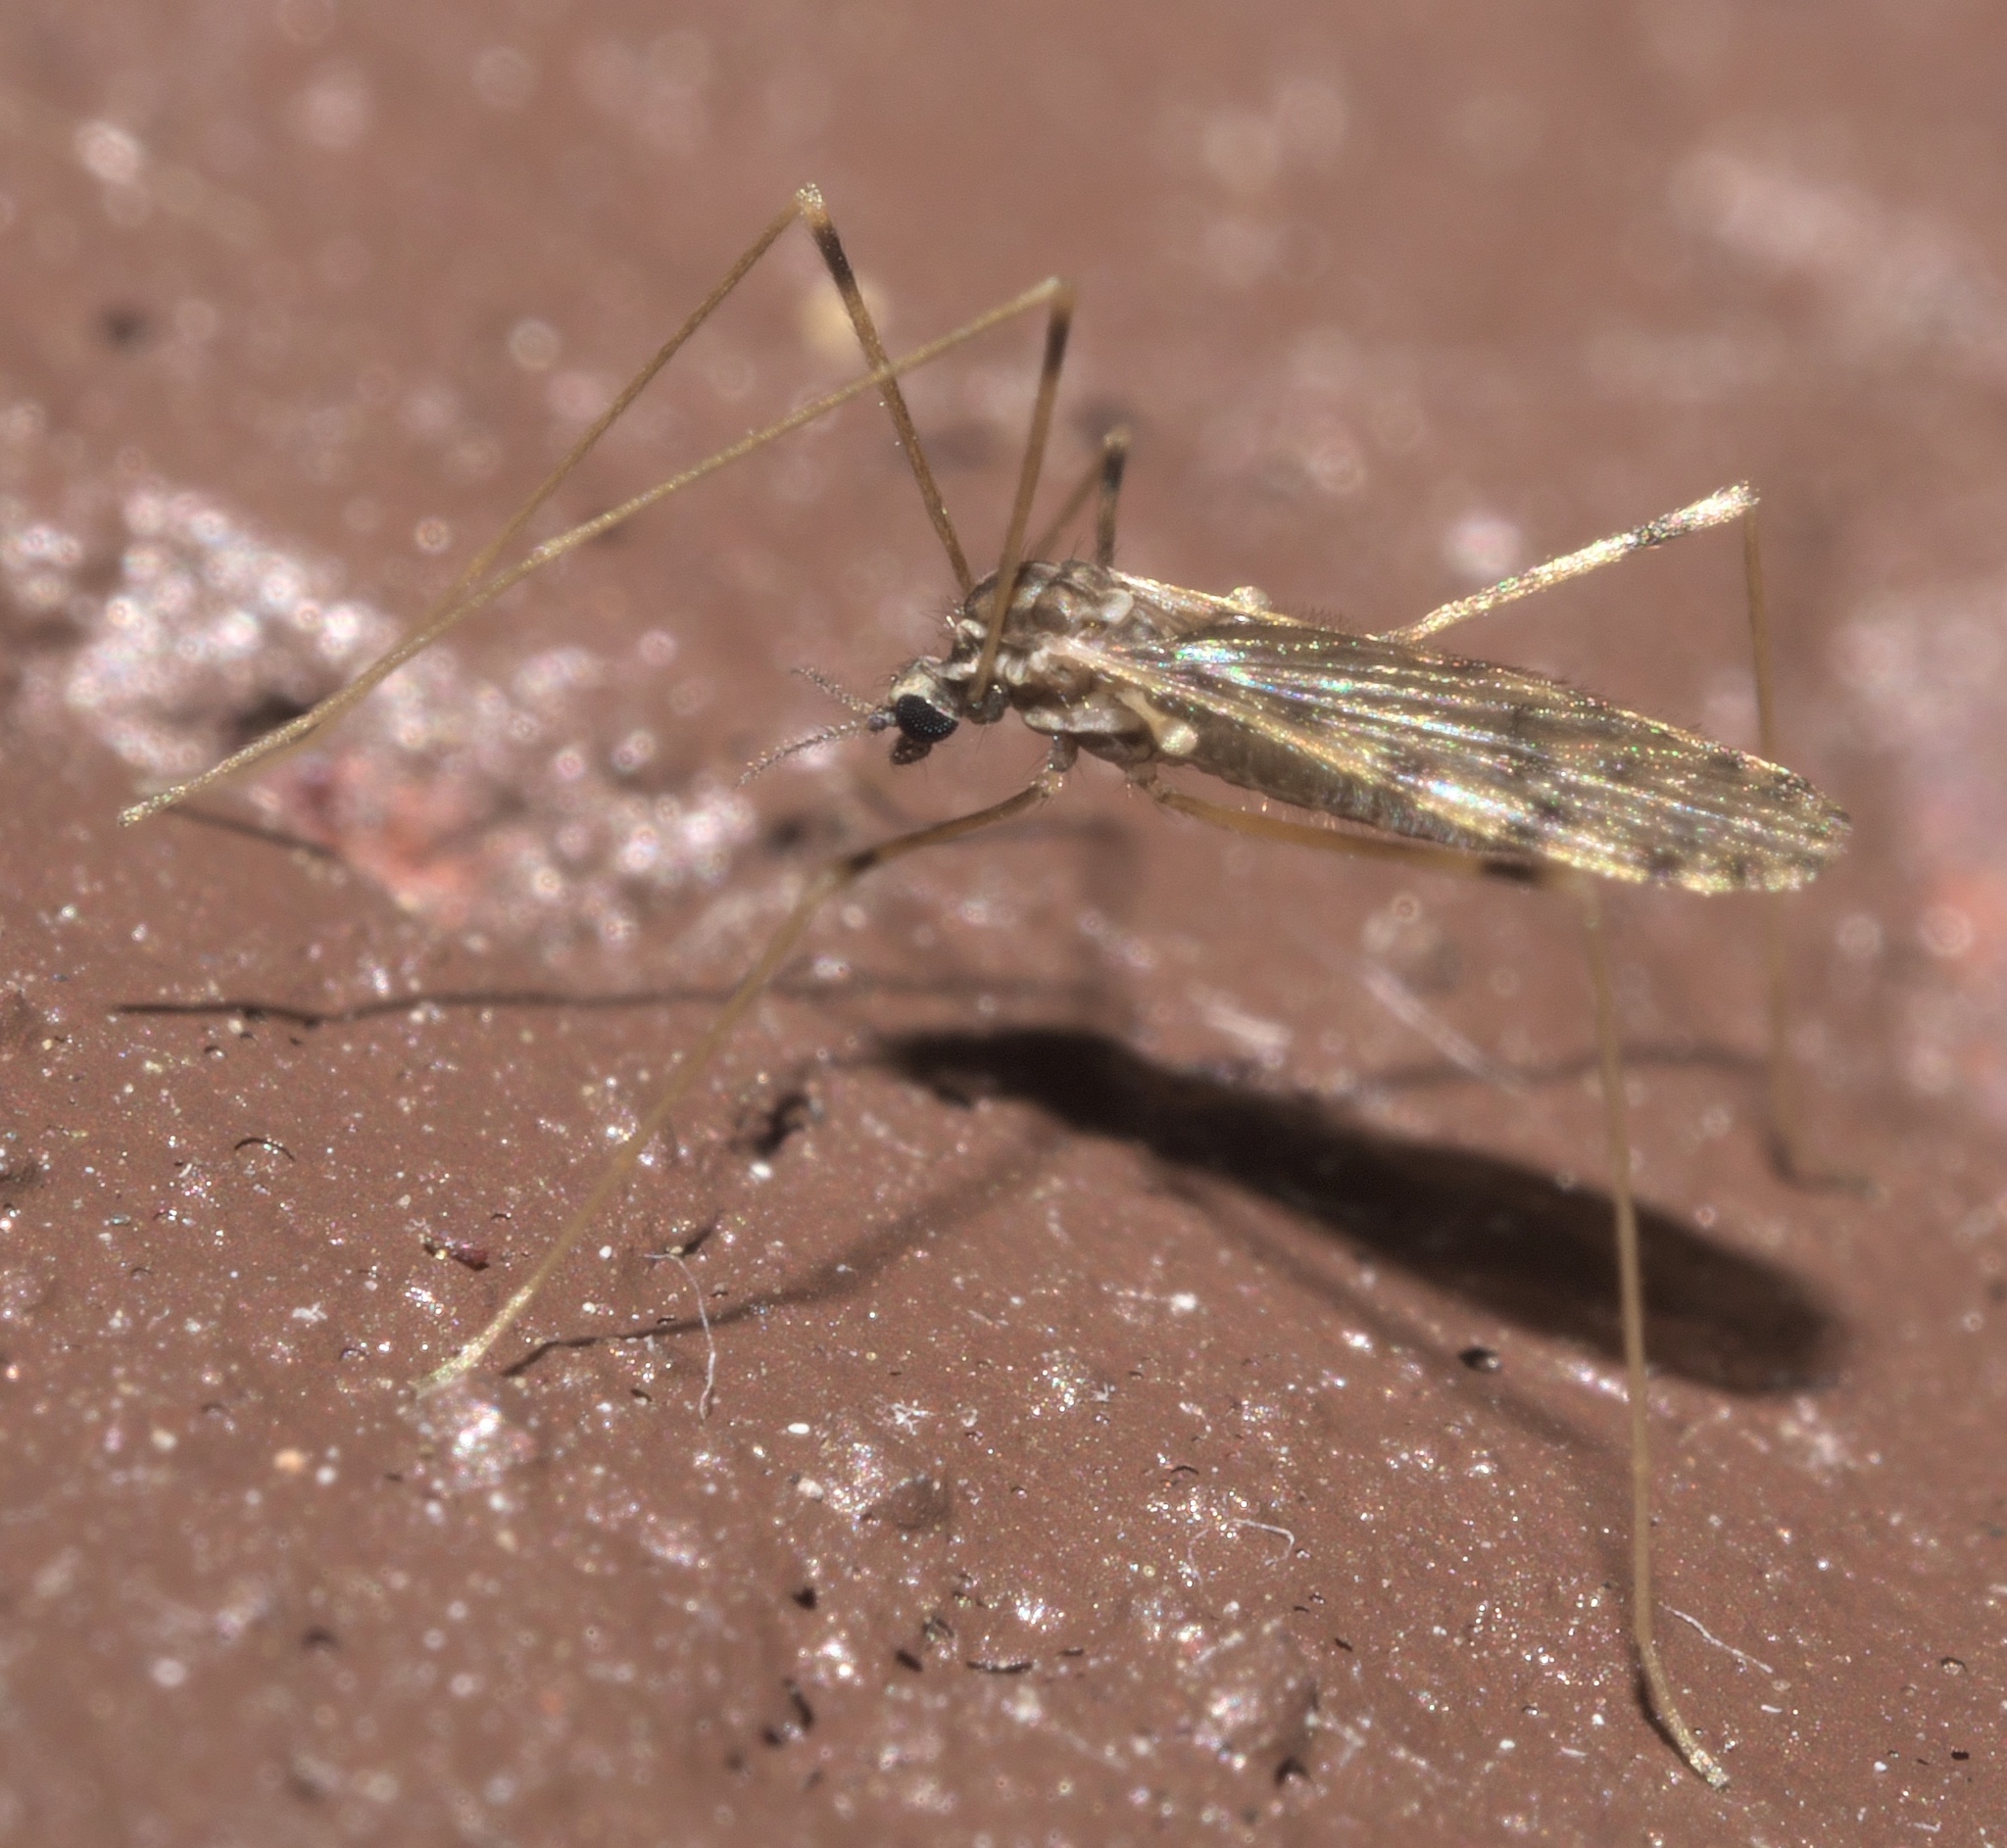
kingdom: Animalia
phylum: Arthropoda
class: Insecta
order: Diptera
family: Limoniidae
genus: Erioptera
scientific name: Erioptera parva
